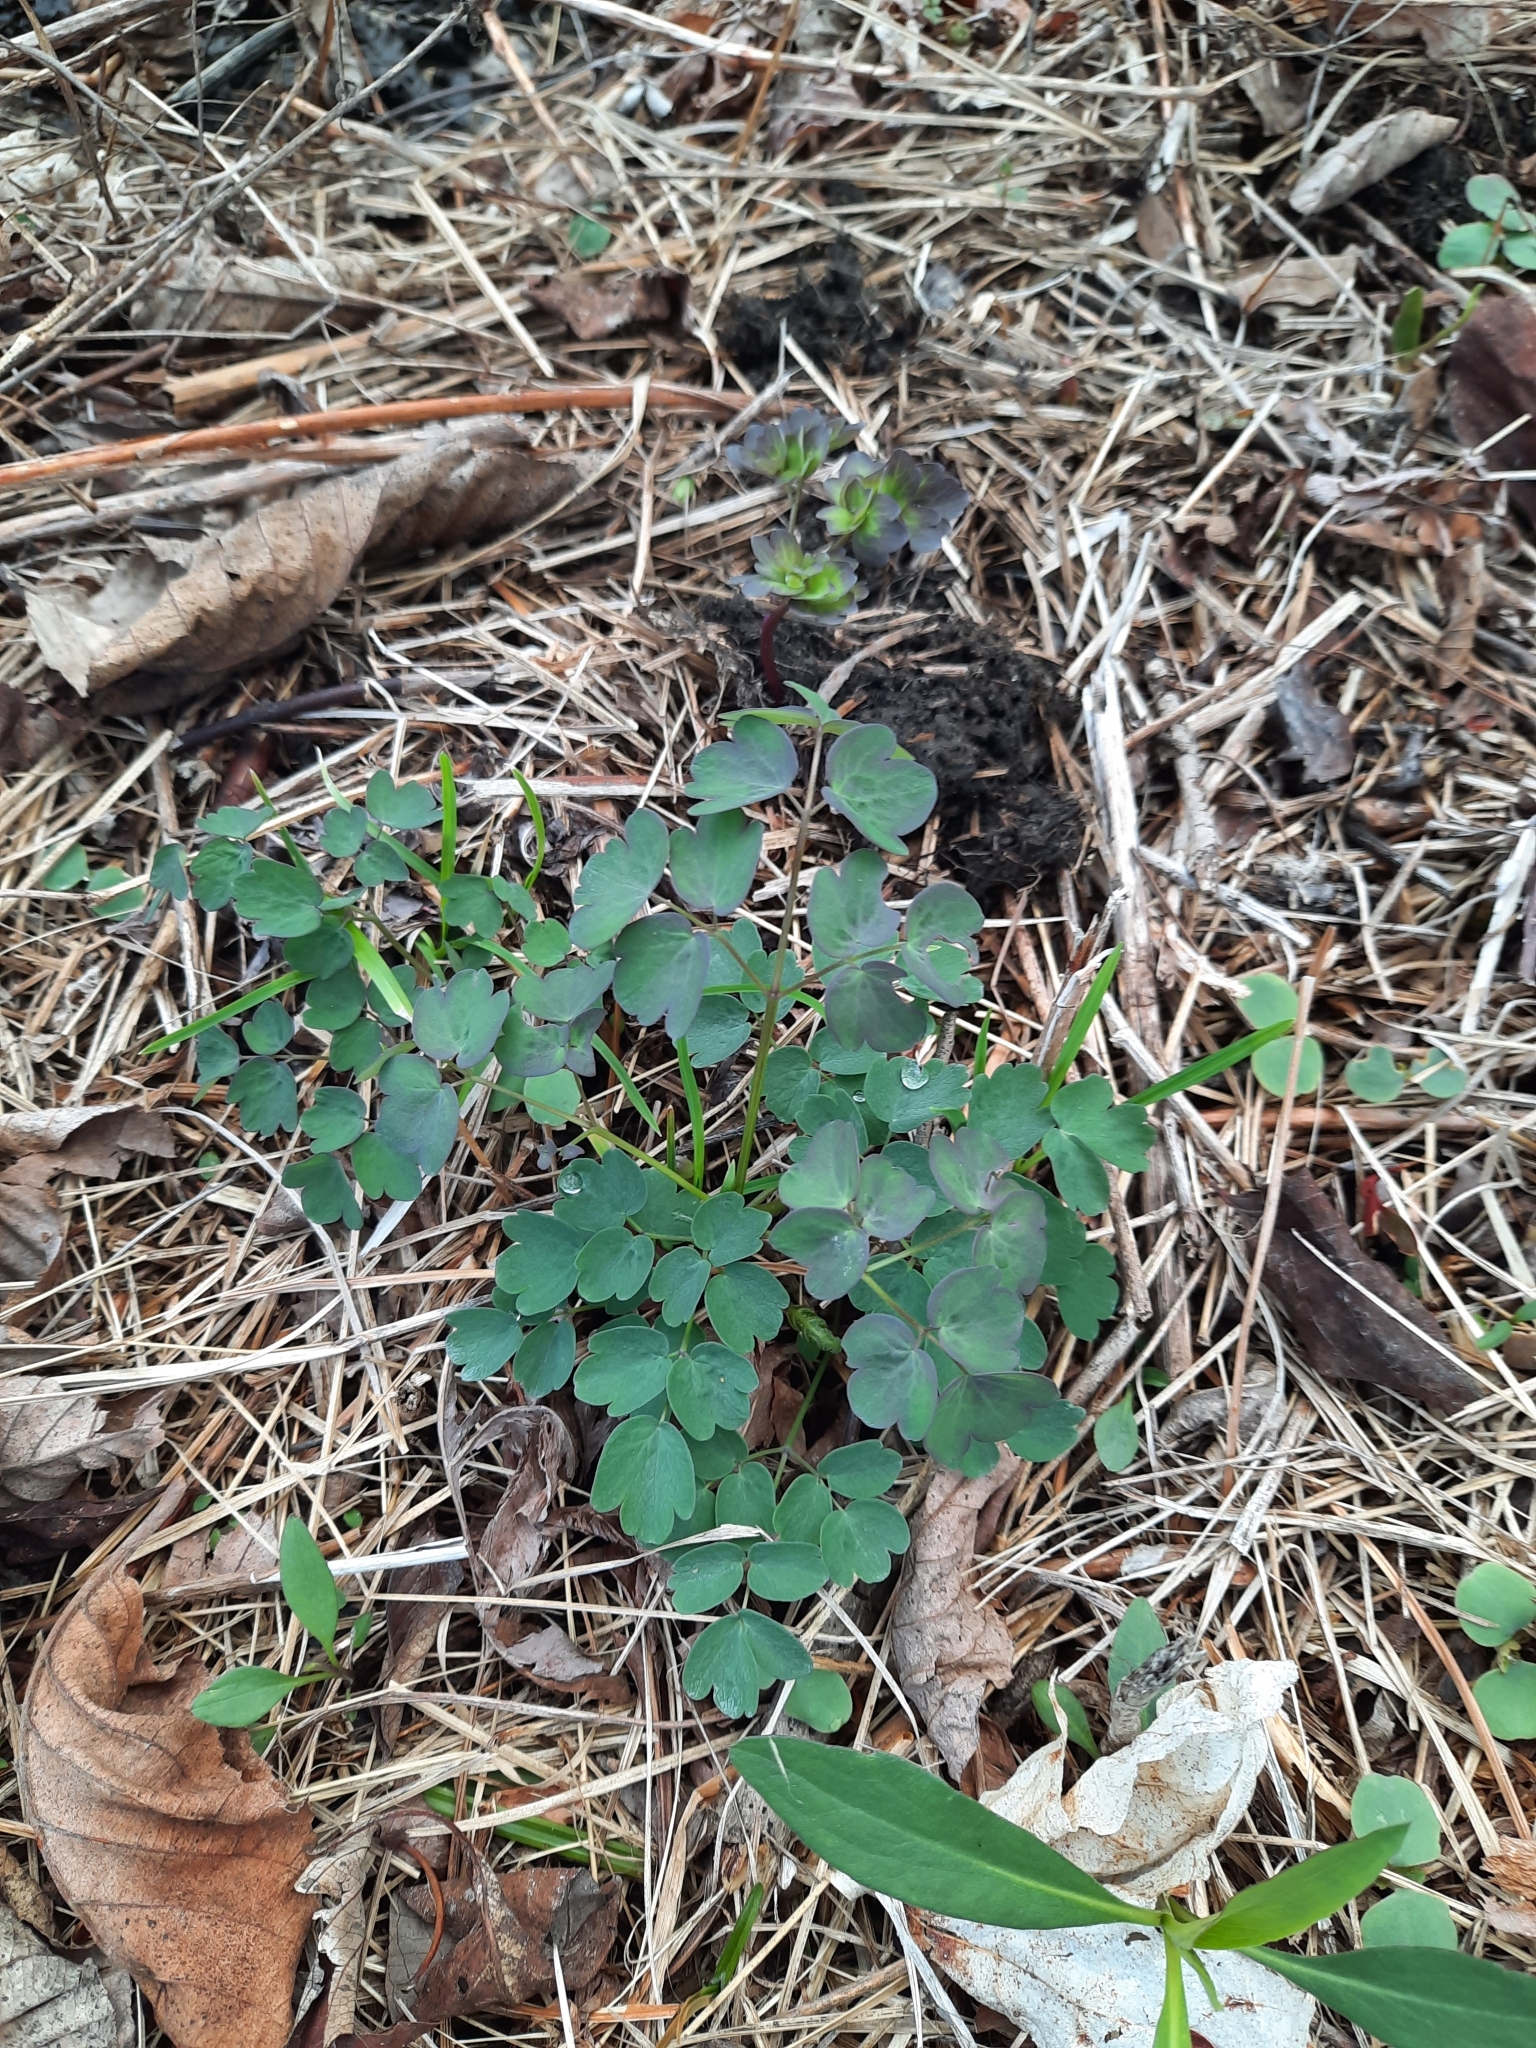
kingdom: Plantae
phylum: Tracheophyta
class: Magnoliopsida
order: Ranunculales
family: Ranunculaceae
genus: Thalictrum
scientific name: Thalictrum pubescens
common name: King-of-the-meadow
